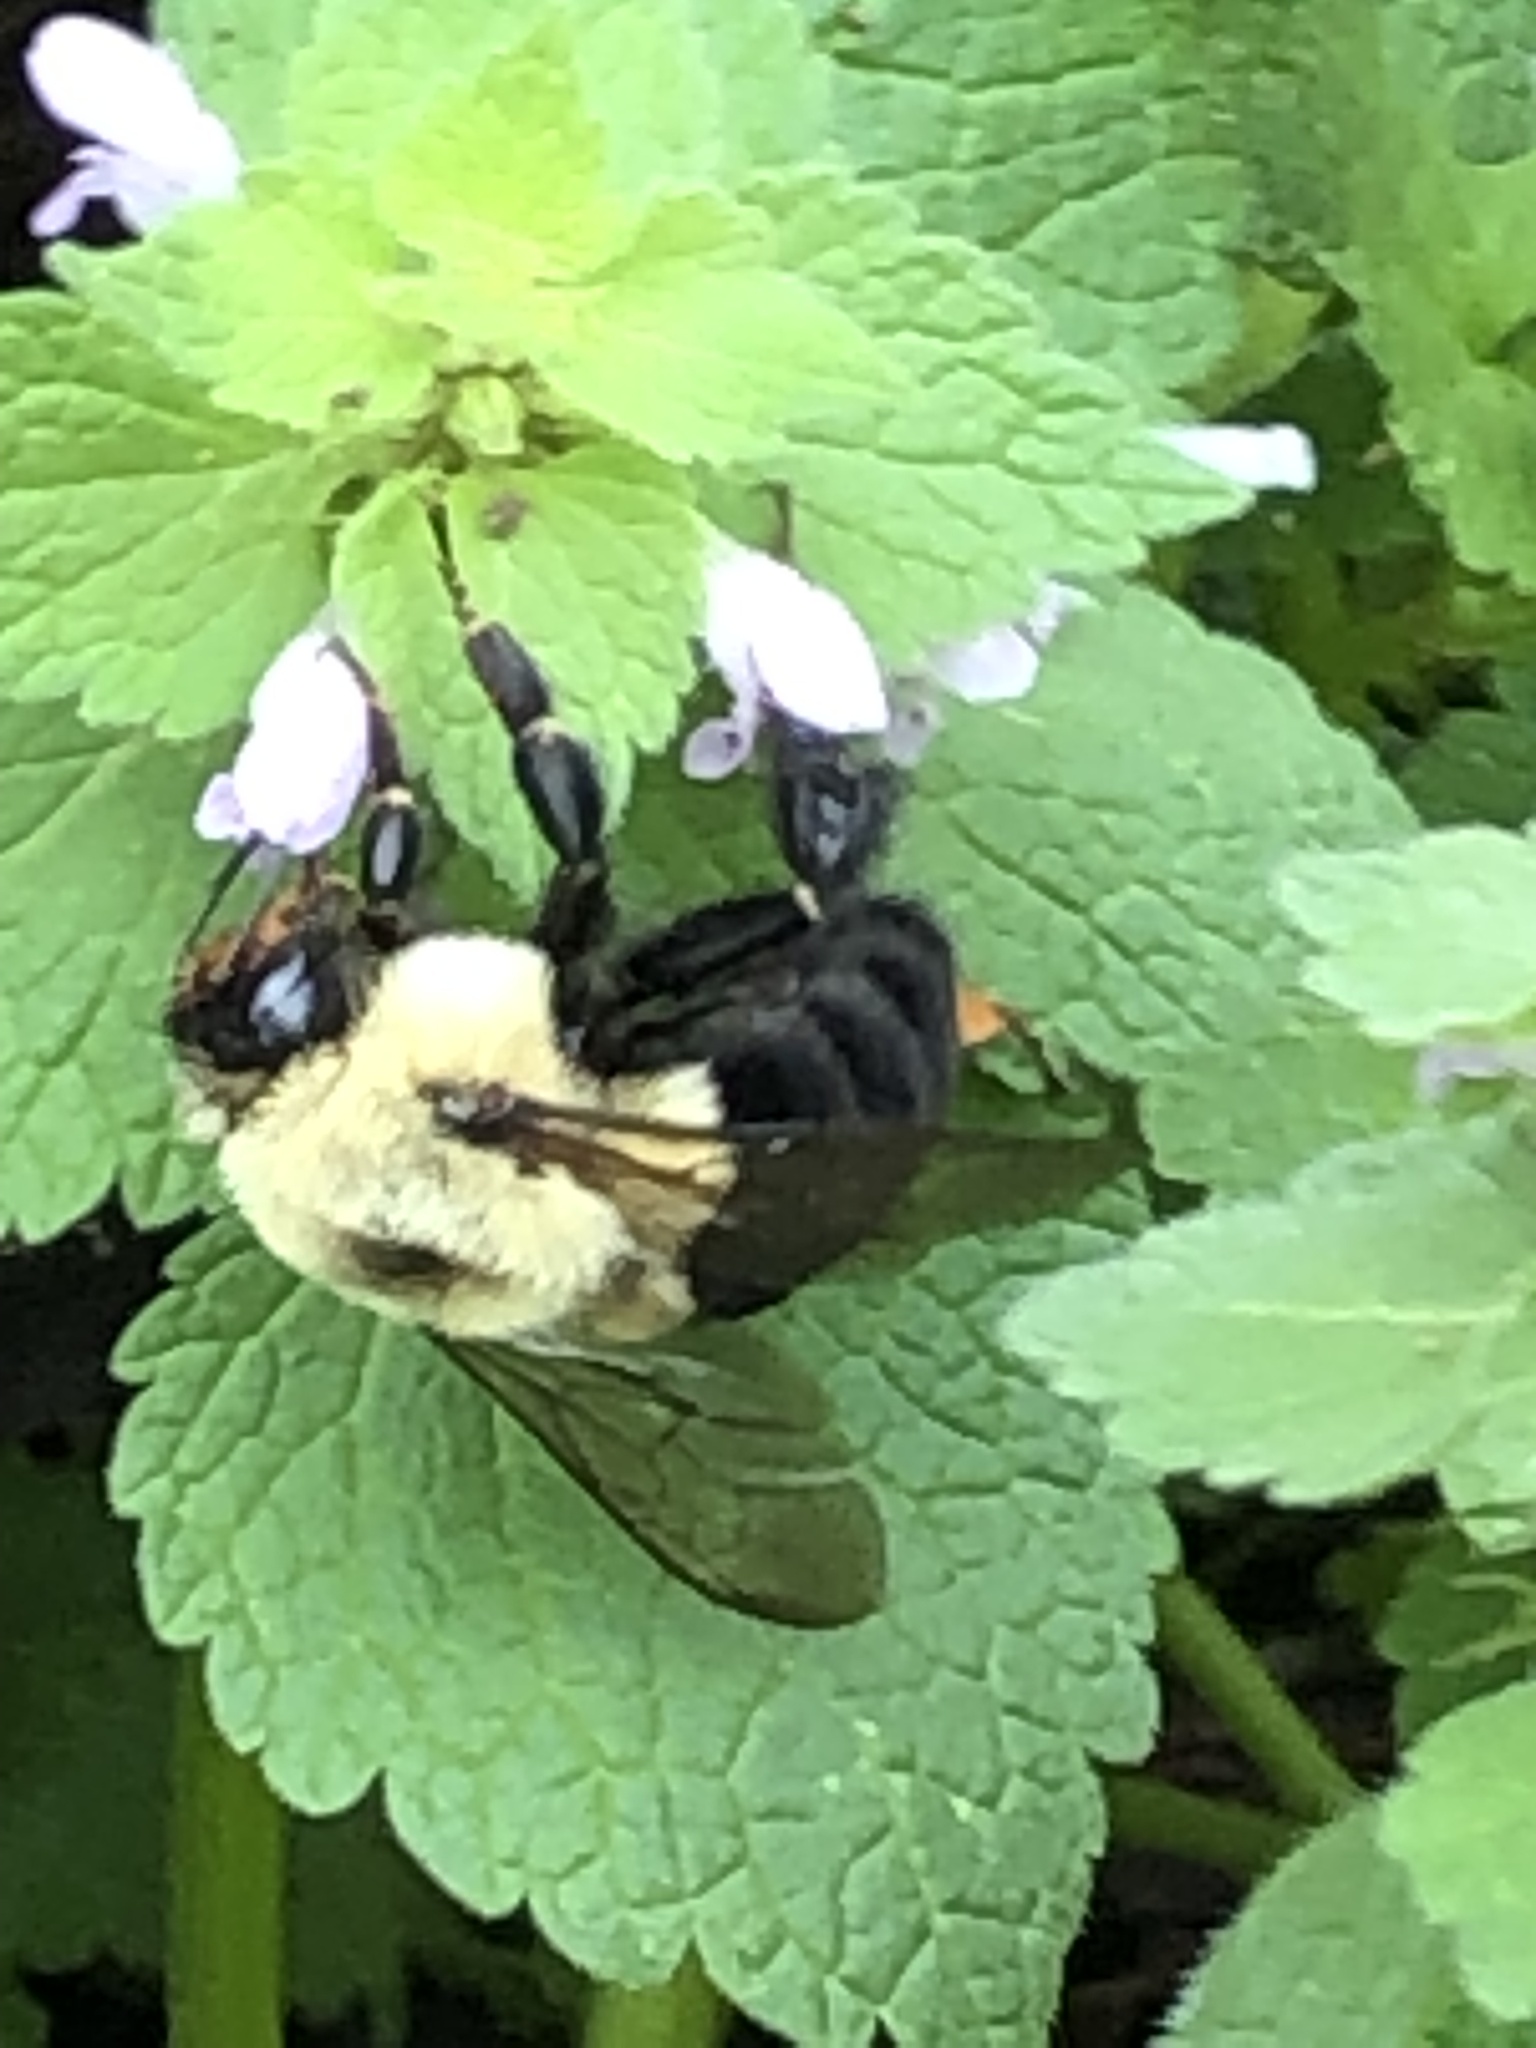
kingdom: Animalia
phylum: Arthropoda
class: Insecta
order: Hymenoptera
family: Apidae
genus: Bombus
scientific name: Bombus impatiens
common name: Common eastern bumble bee
